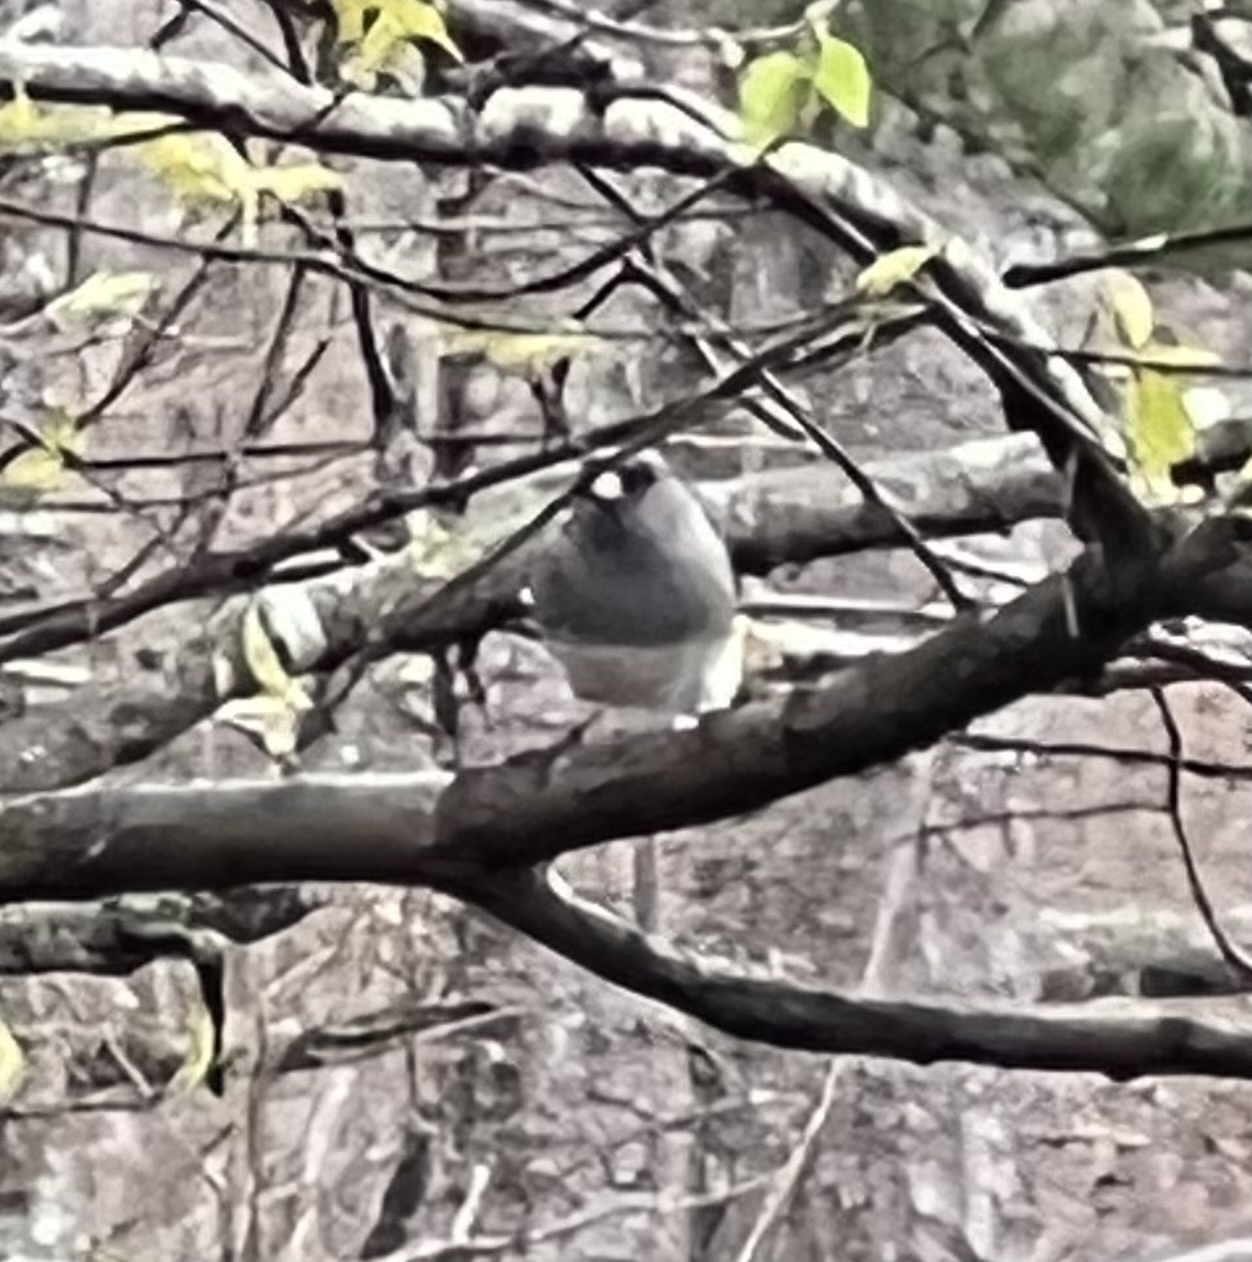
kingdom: Animalia
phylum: Chordata
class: Aves
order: Passeriformes
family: Passerellidae
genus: Junco
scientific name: Junco hyemalis
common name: Dark-eyed junco
